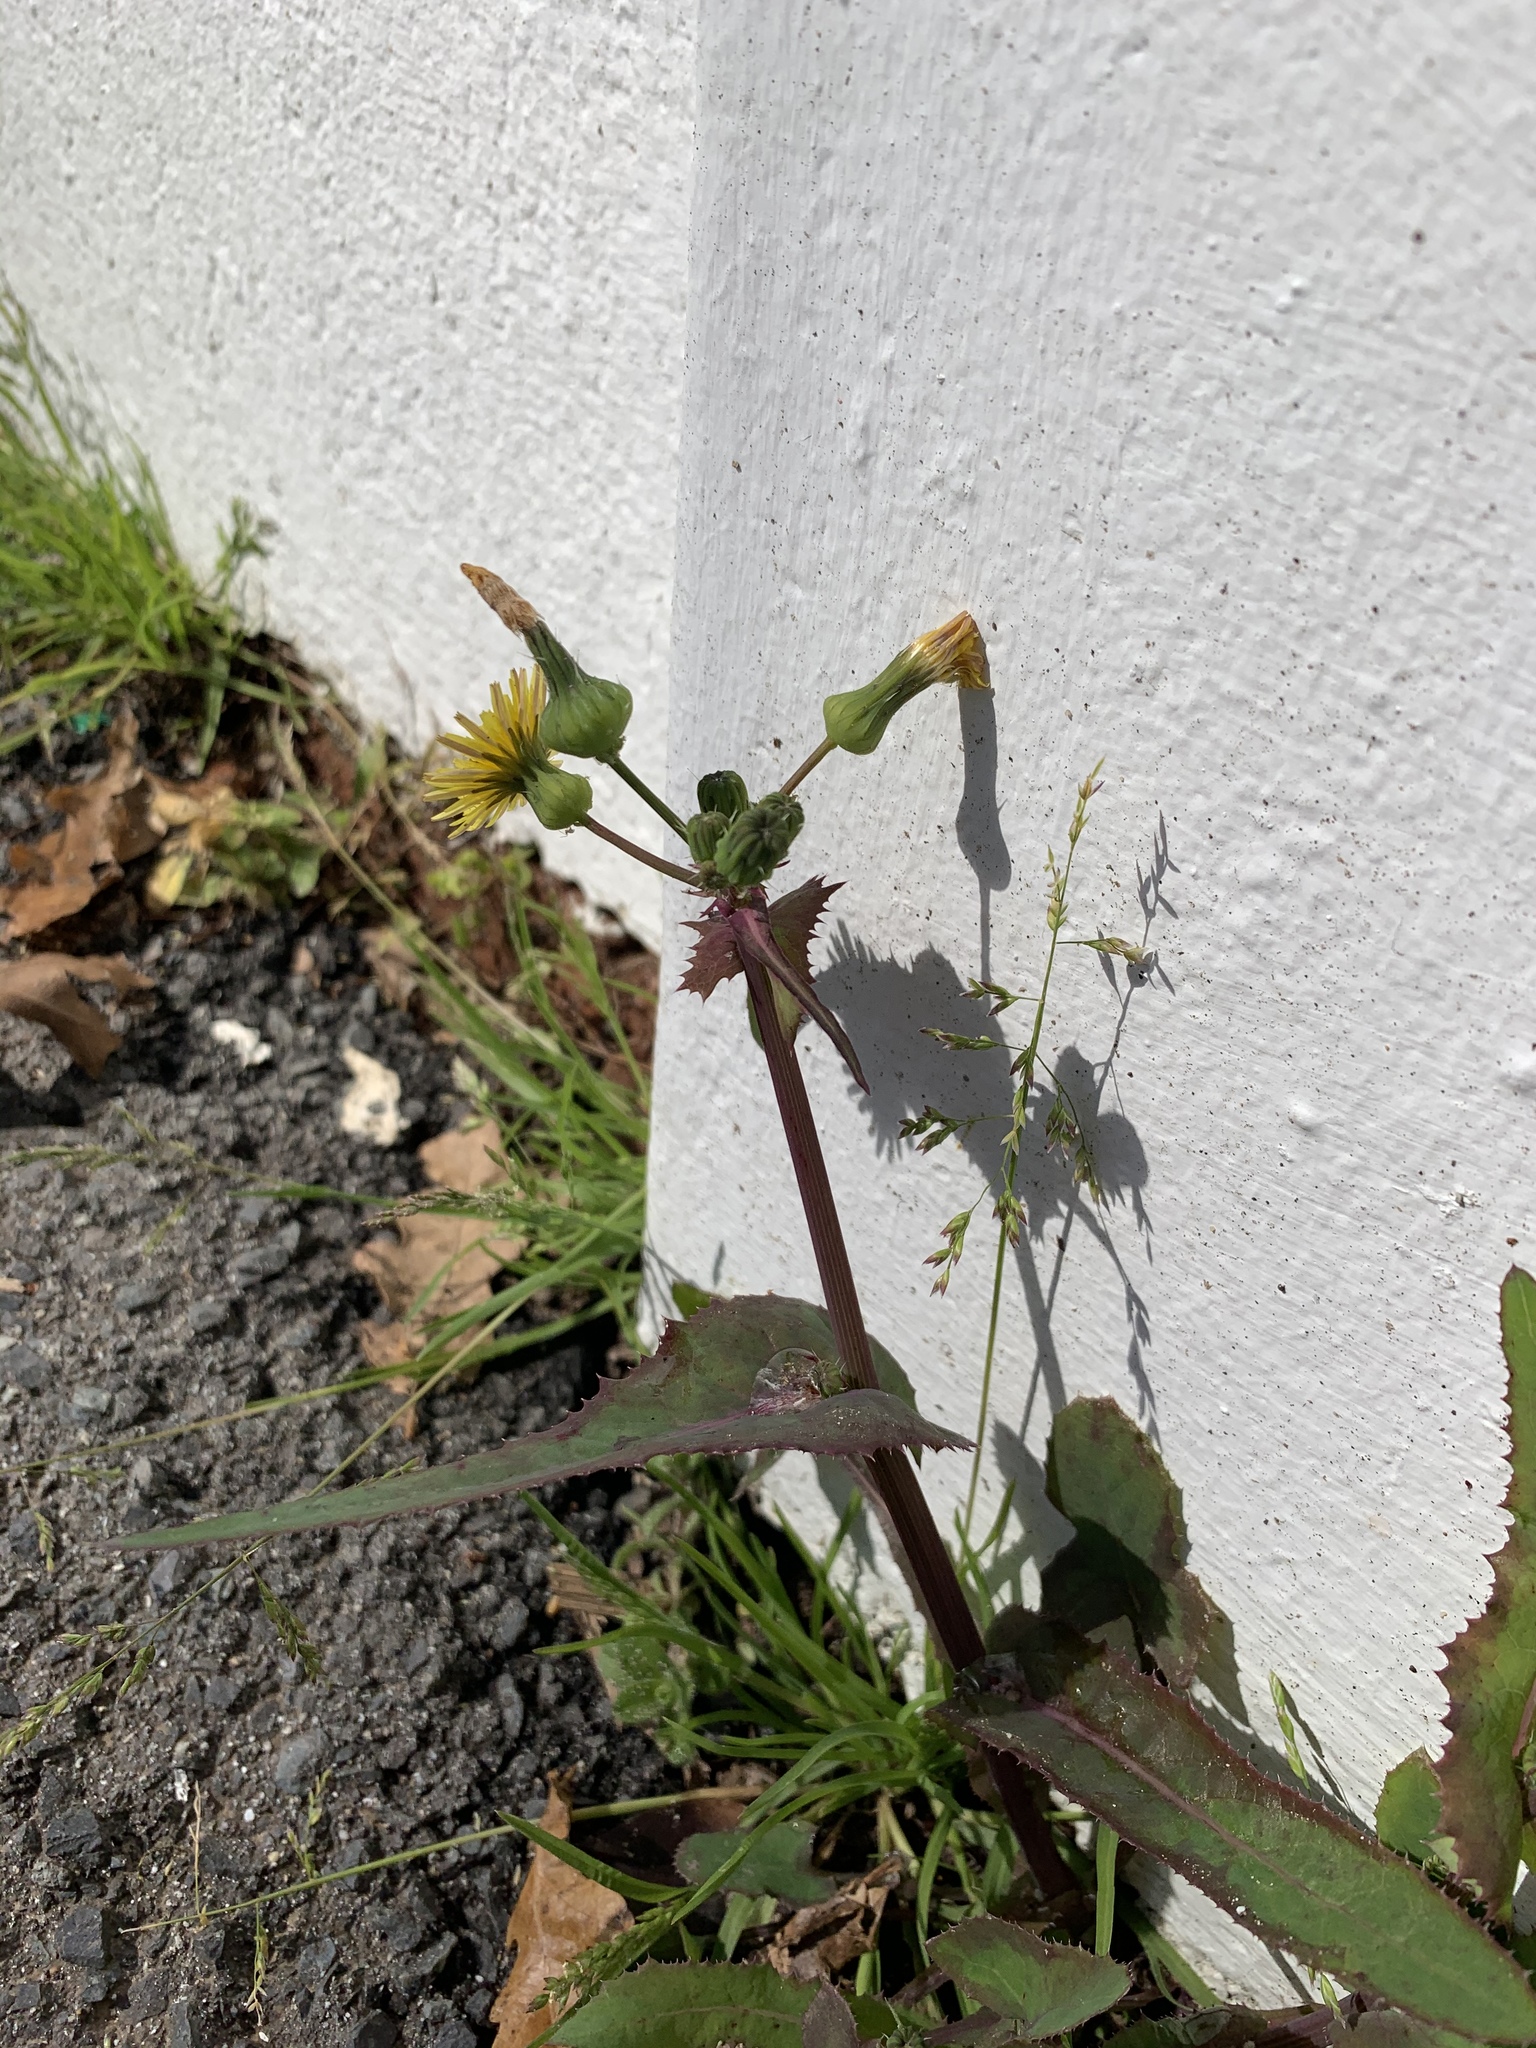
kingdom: Plantae
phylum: Tracheophyta
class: Magnoliopsida
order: Asterales
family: Asteraceae
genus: Sonchus
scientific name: Sonchus oleraceus
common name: Common sowthistle
